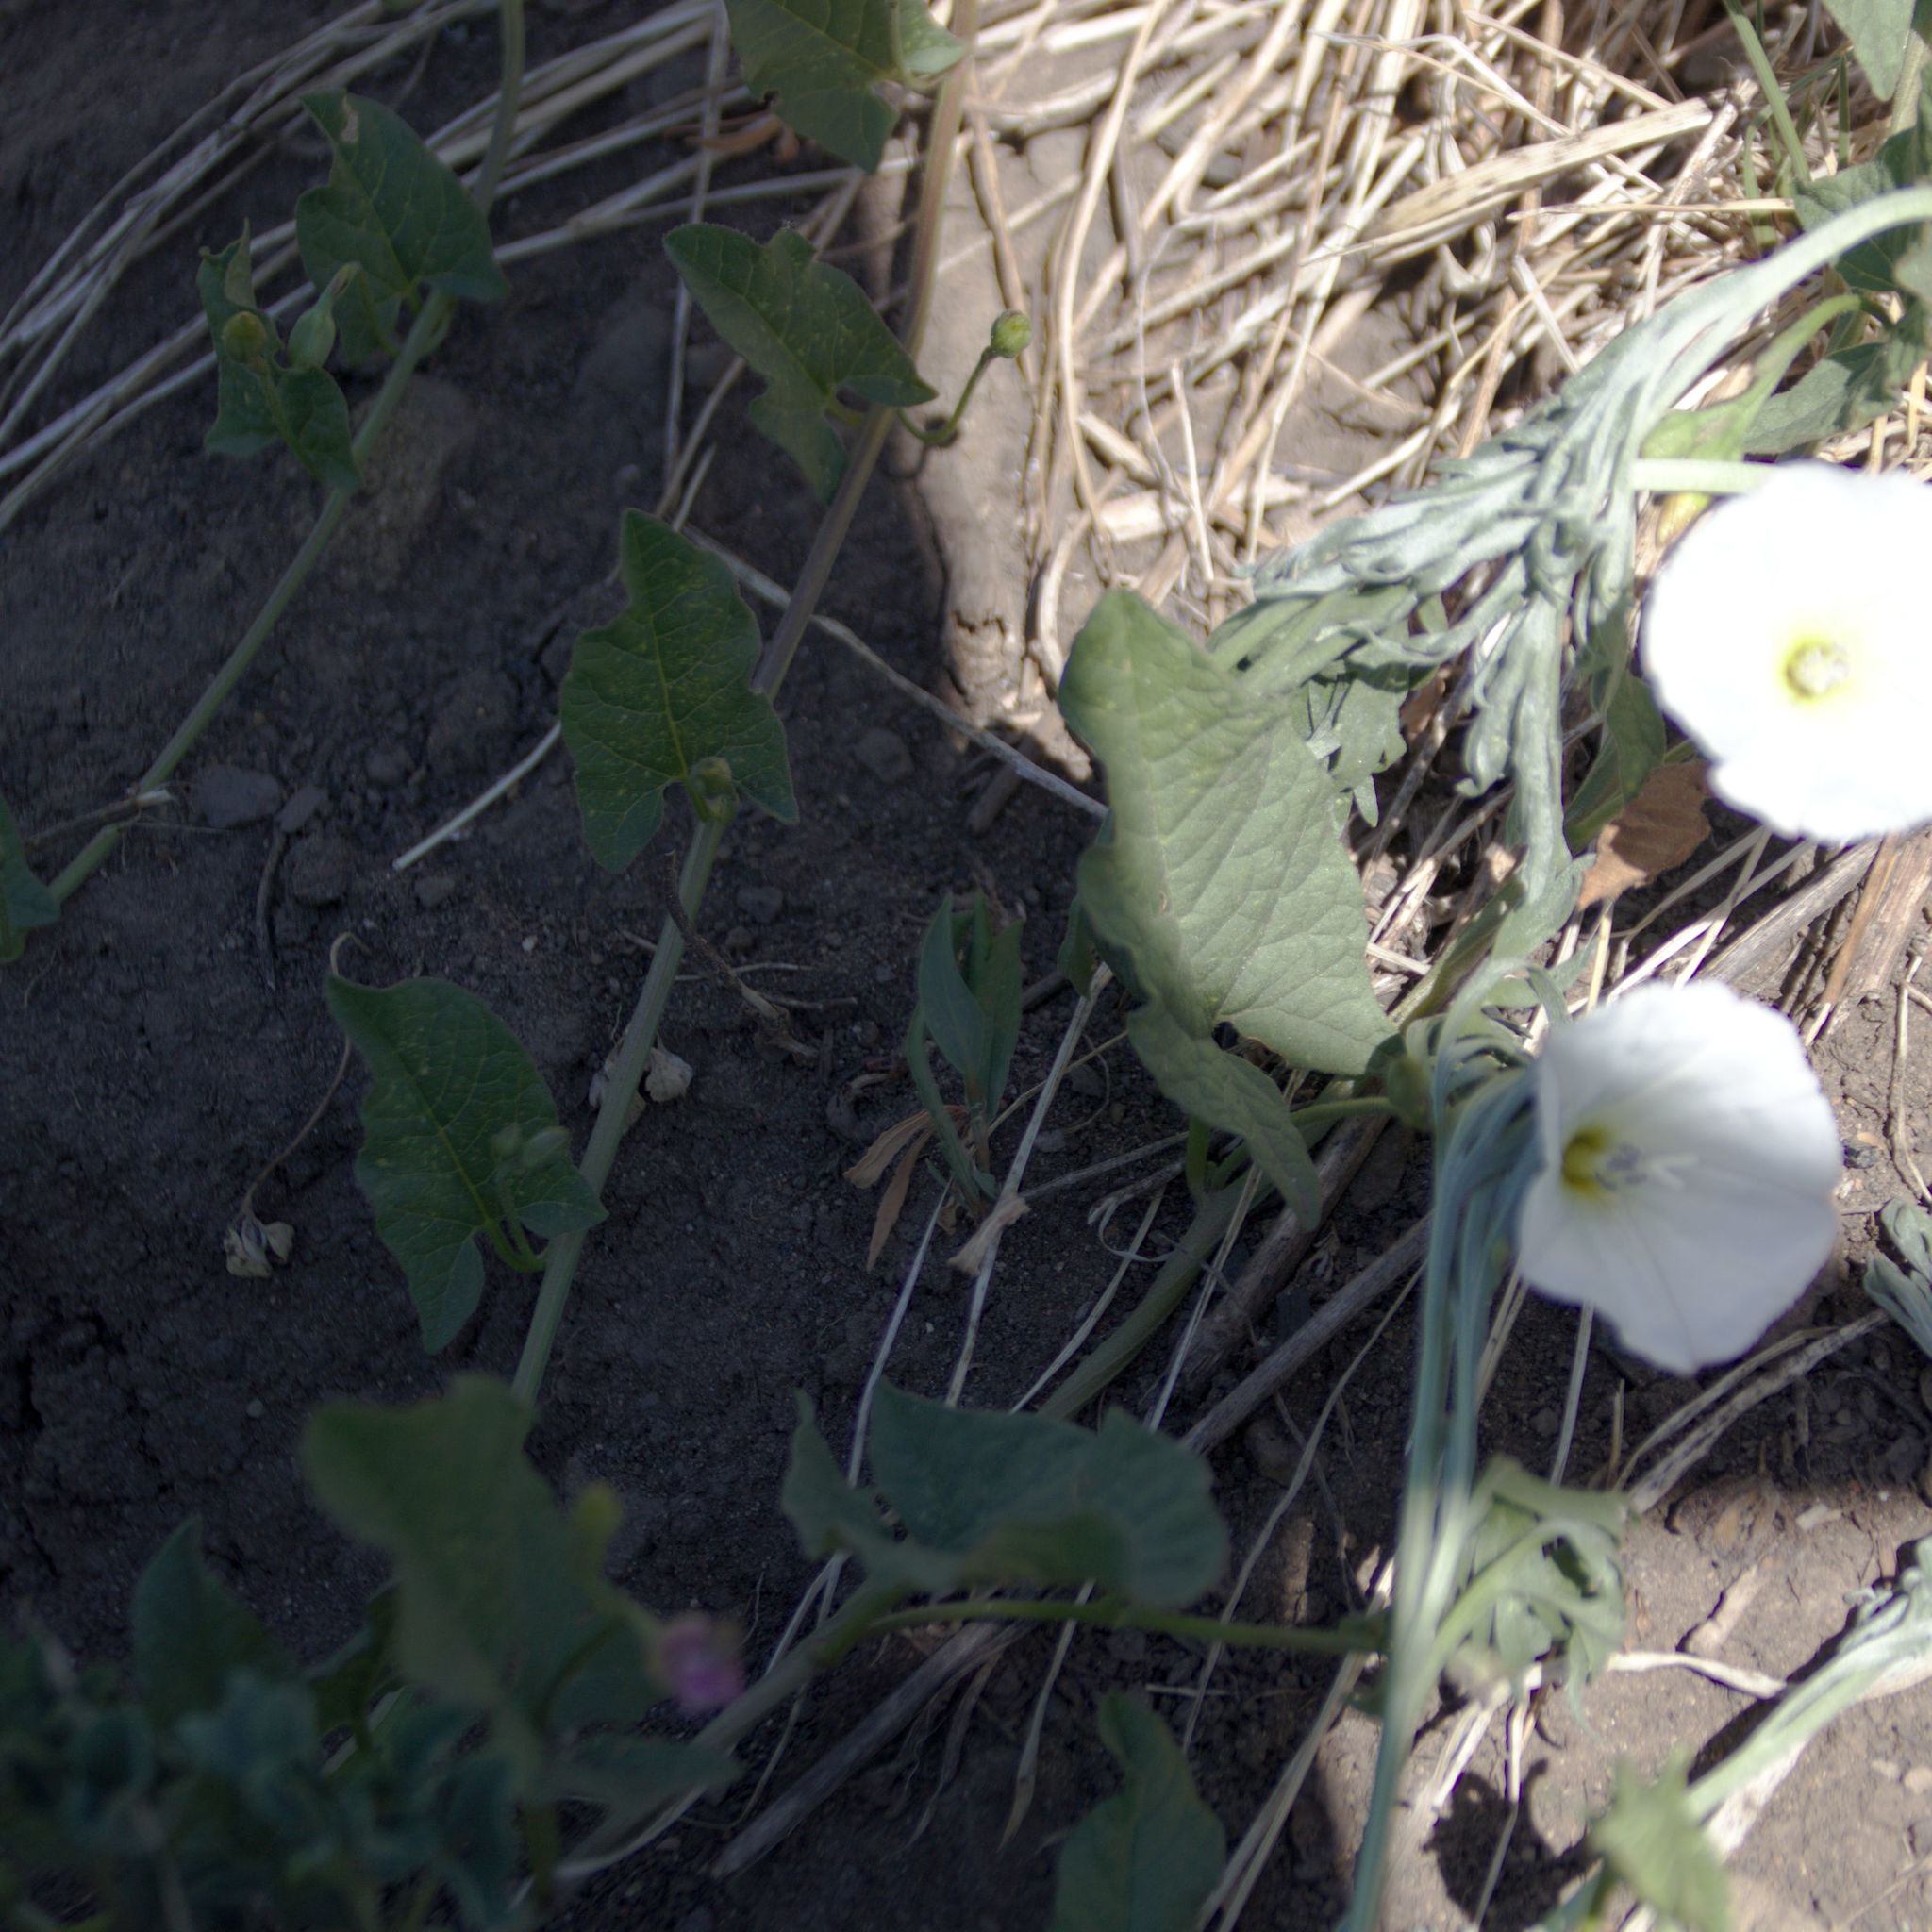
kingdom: Plantae
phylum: Tracheophyta
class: Magnoliopsida
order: Solanales
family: Convolvulaceae
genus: Convolvulus
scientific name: Convolvulus arvensis
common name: Field bindweed
